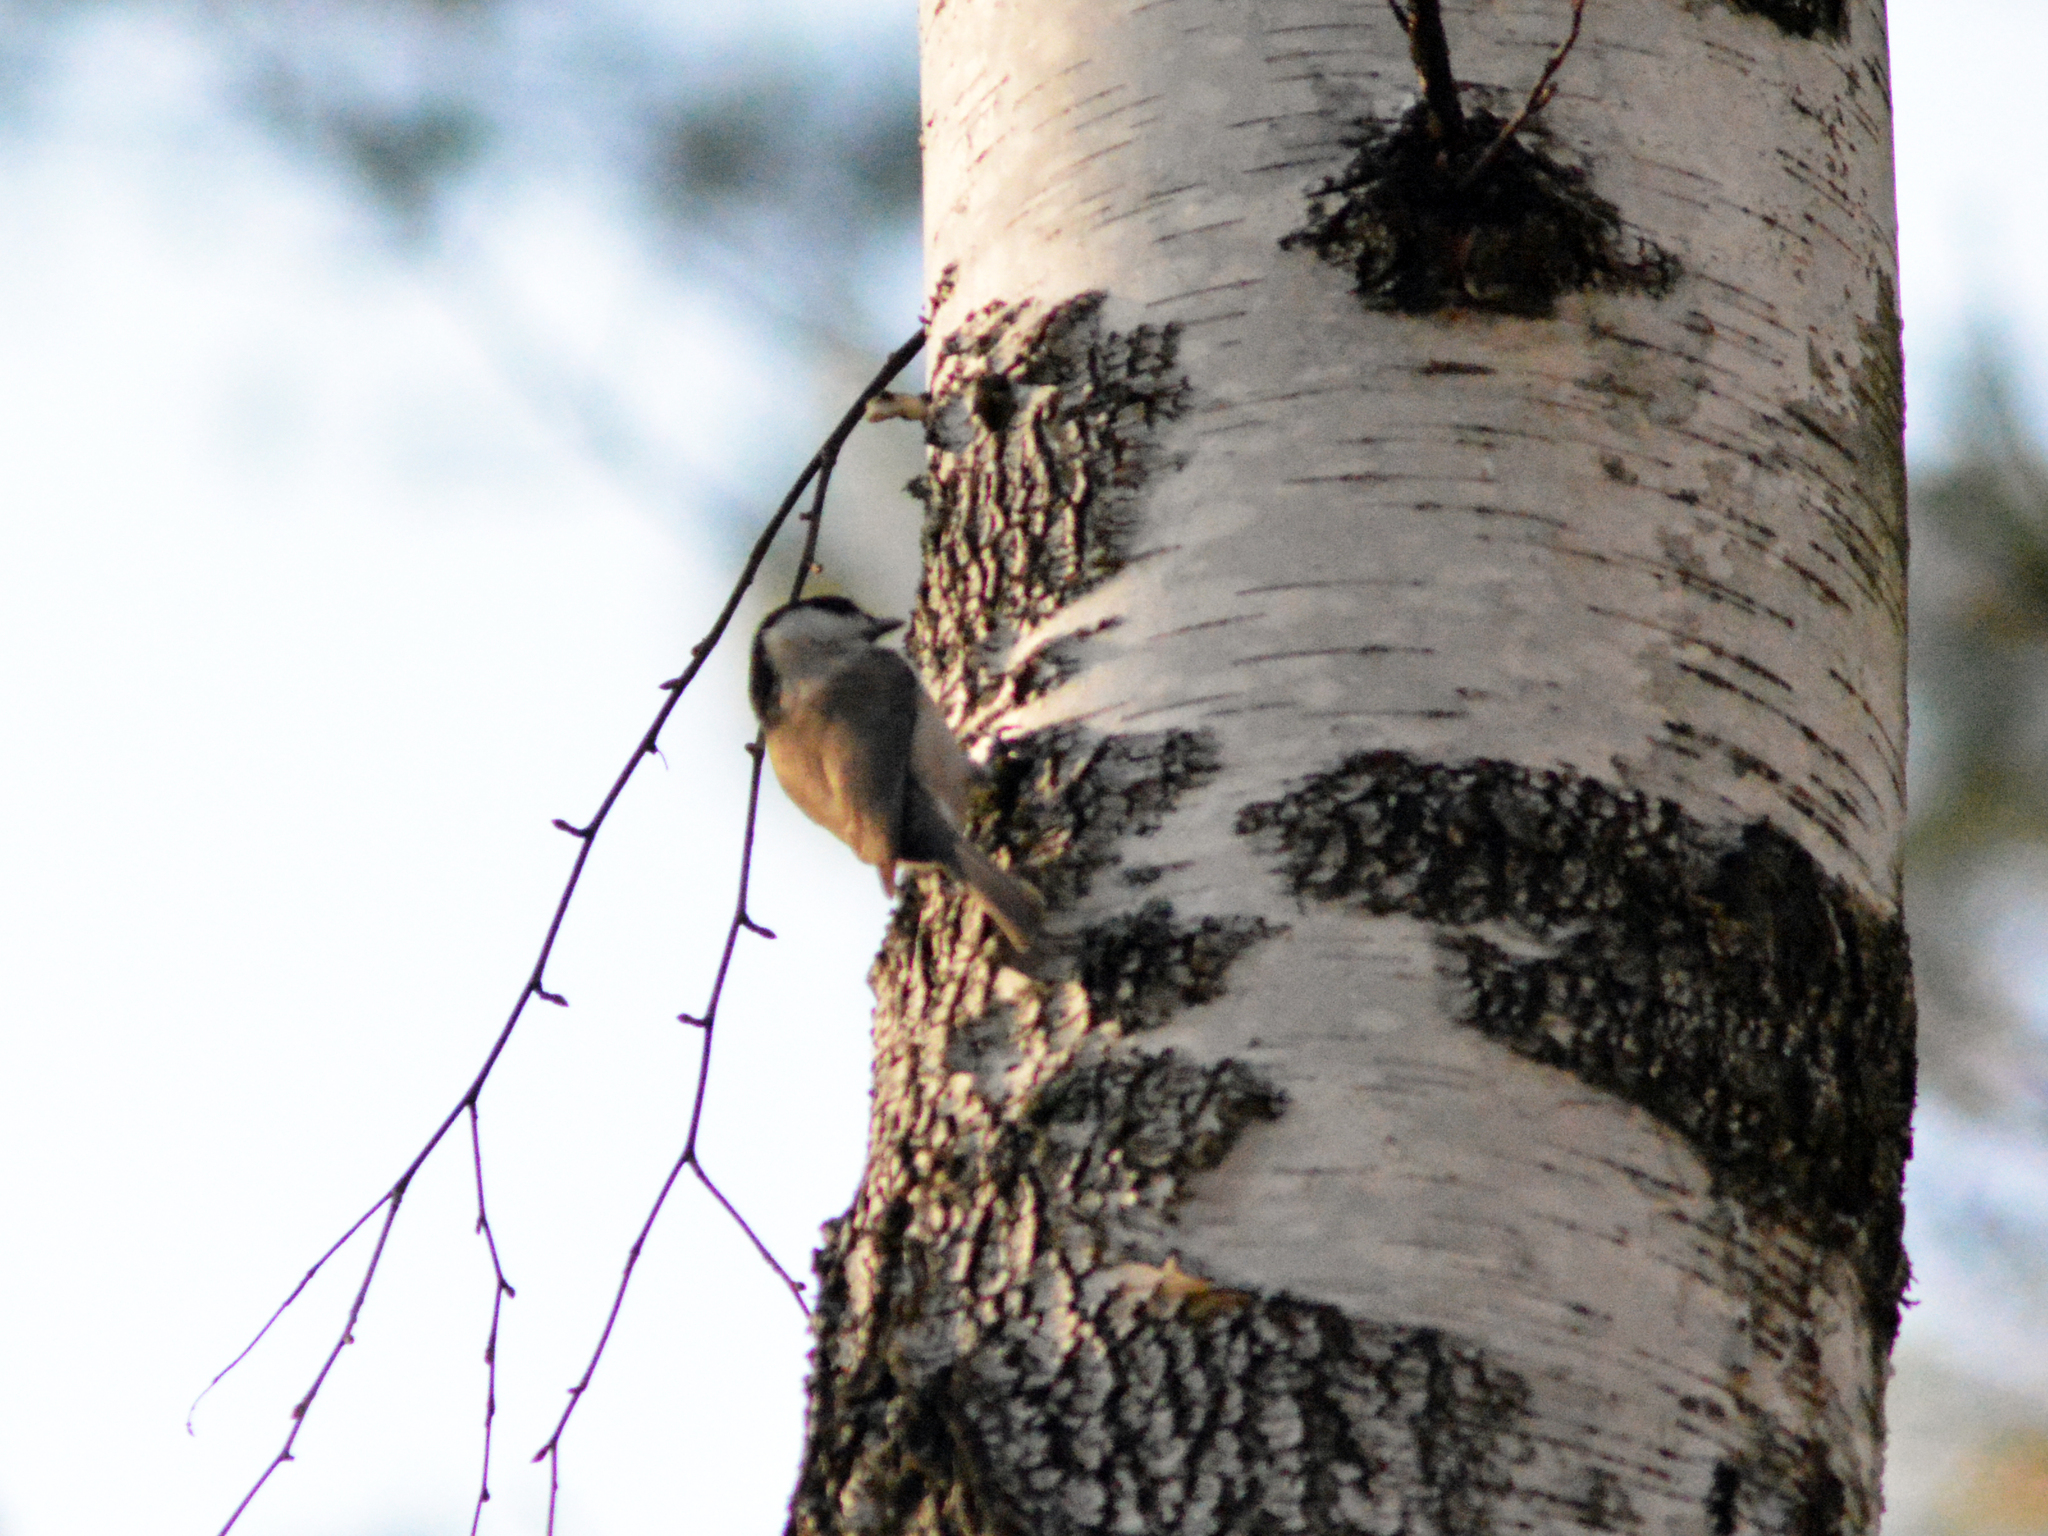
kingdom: Animalia
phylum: Chordata
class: Aves
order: Passeriformes
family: Paridae
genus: Poecile
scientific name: Poecile palustris
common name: Marsh tit
